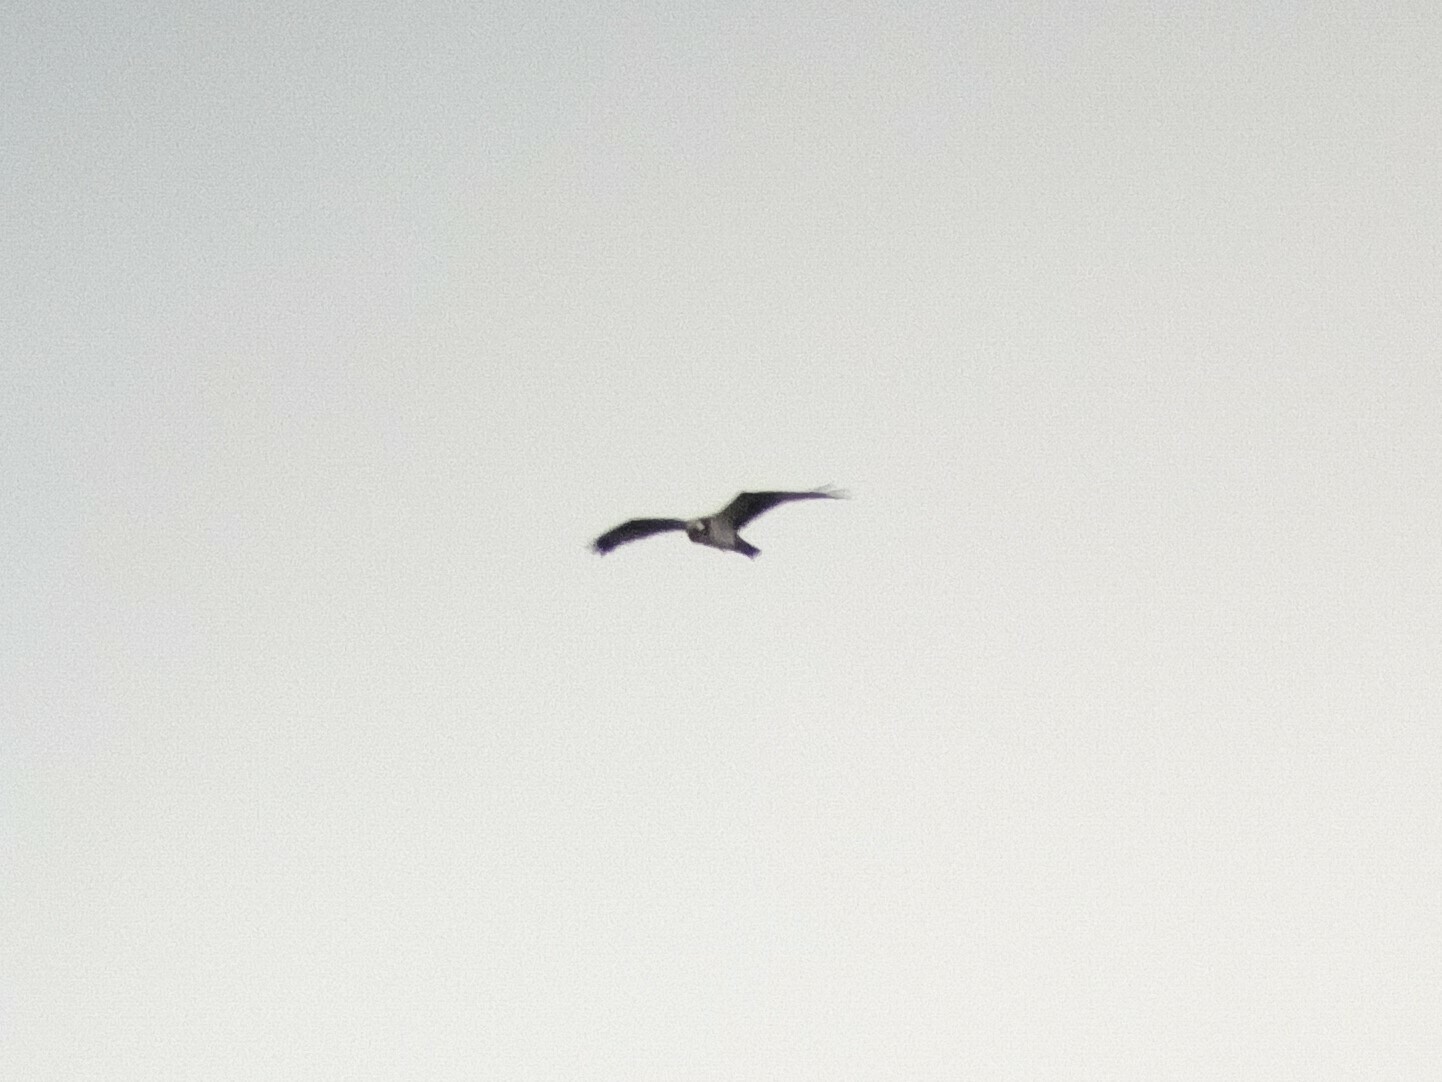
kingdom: Animalia
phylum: Chordata
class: Aves
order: Accipitriformes
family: Pandionidae
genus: Pandion
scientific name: Pandion haliaetus
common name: Osprey
